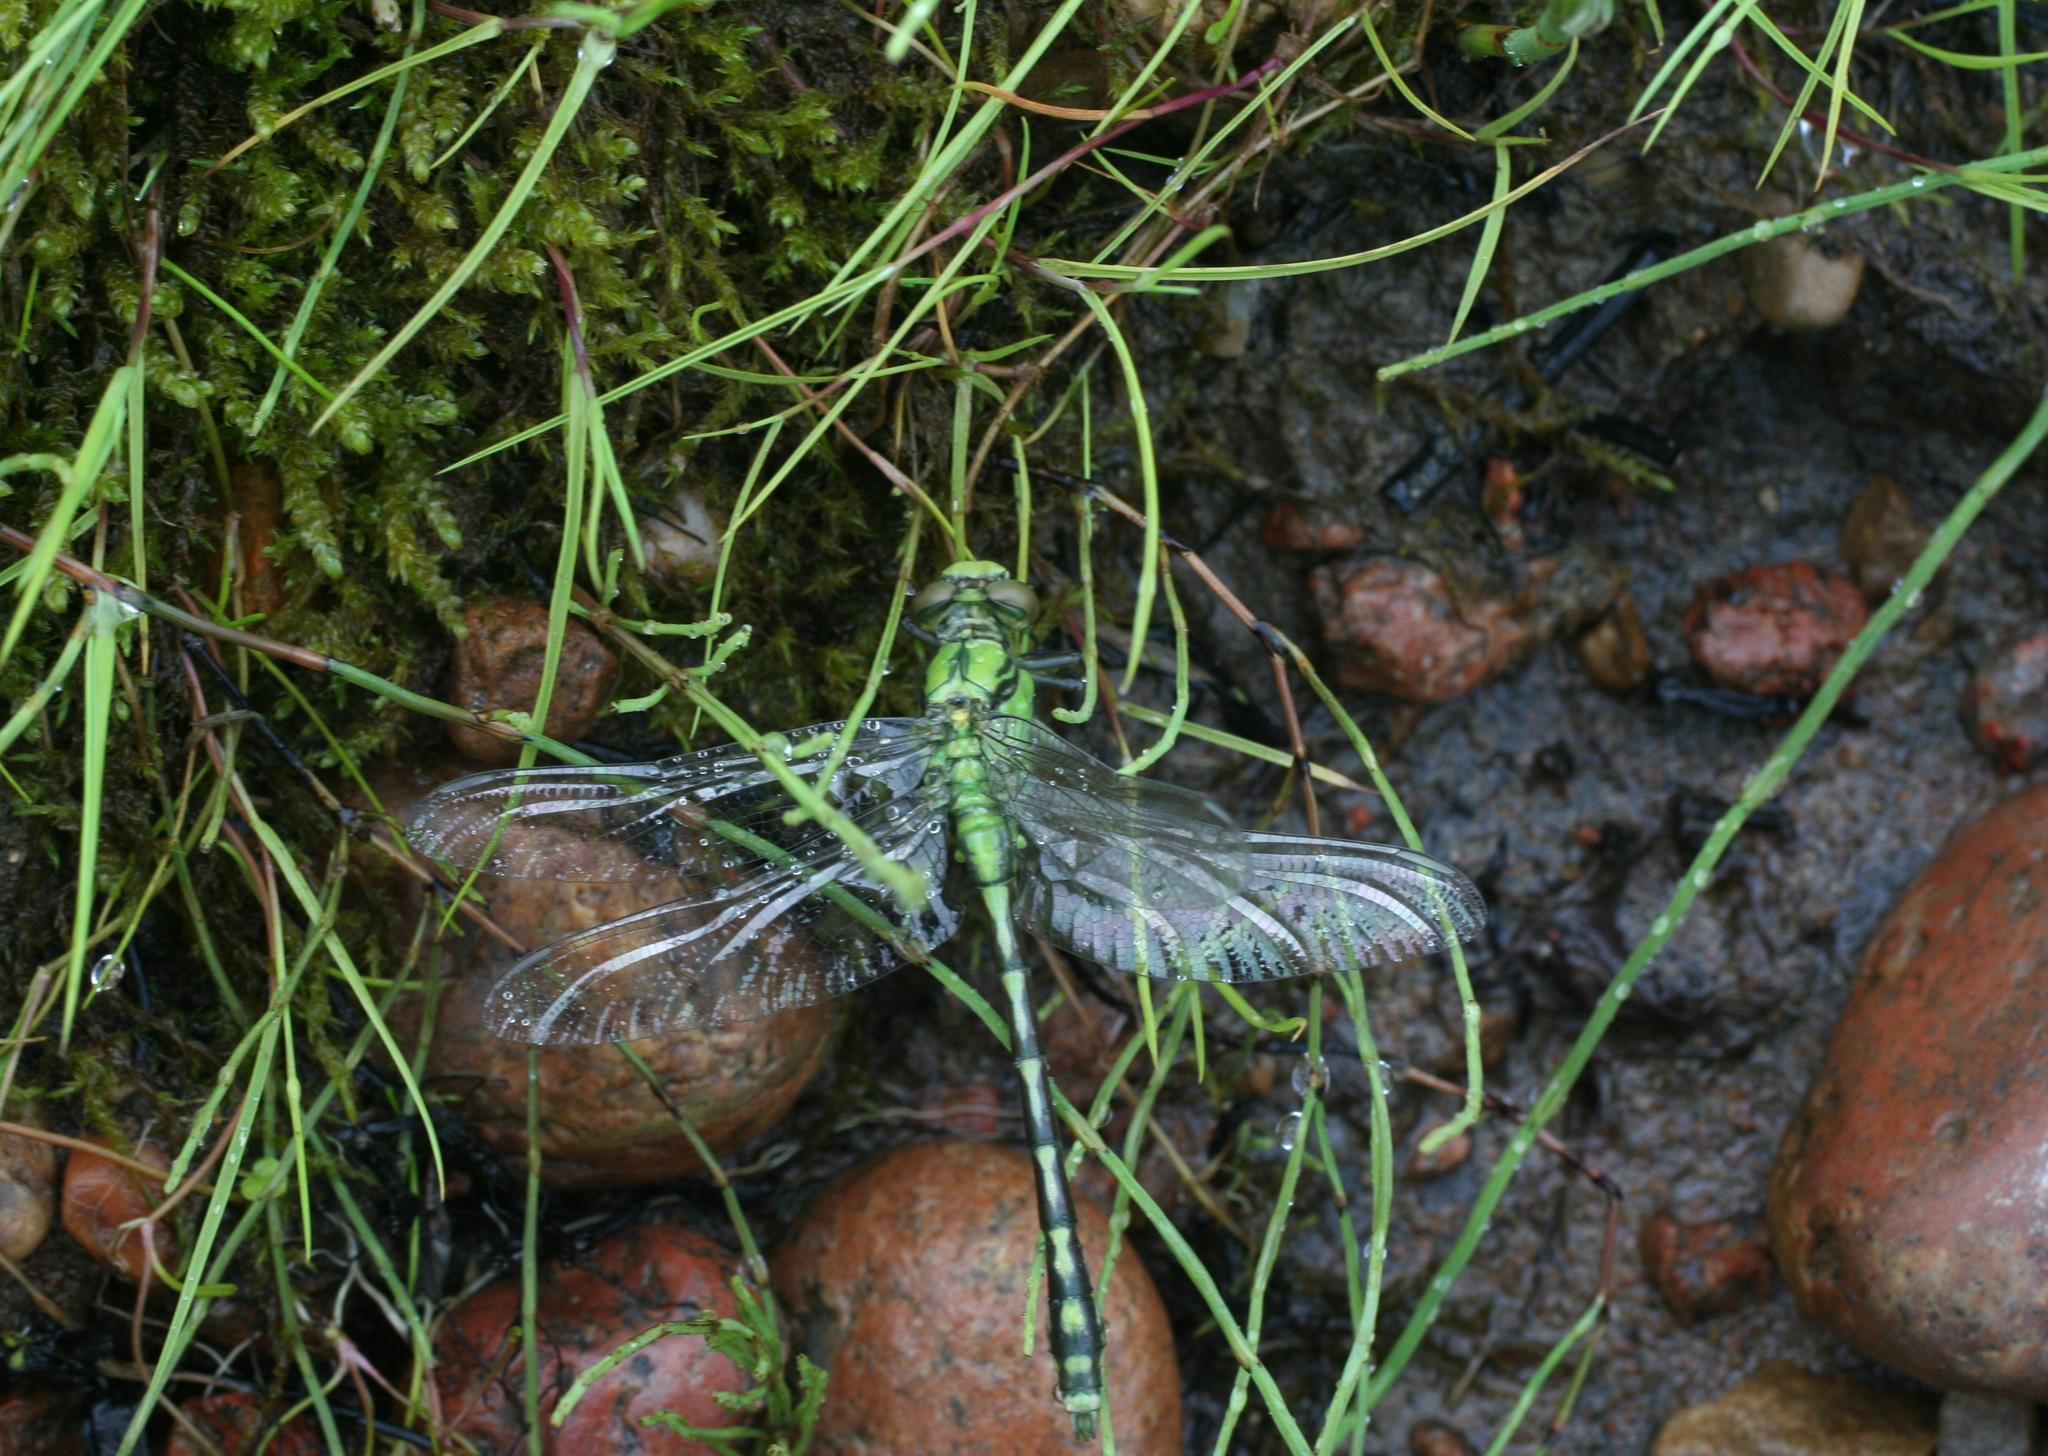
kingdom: Plantae
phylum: Tracheophyta
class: Polypodiopsida
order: Equisetales
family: Equisetaceae
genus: Equisetum
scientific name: Equisetum arvense
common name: Field horsetail
